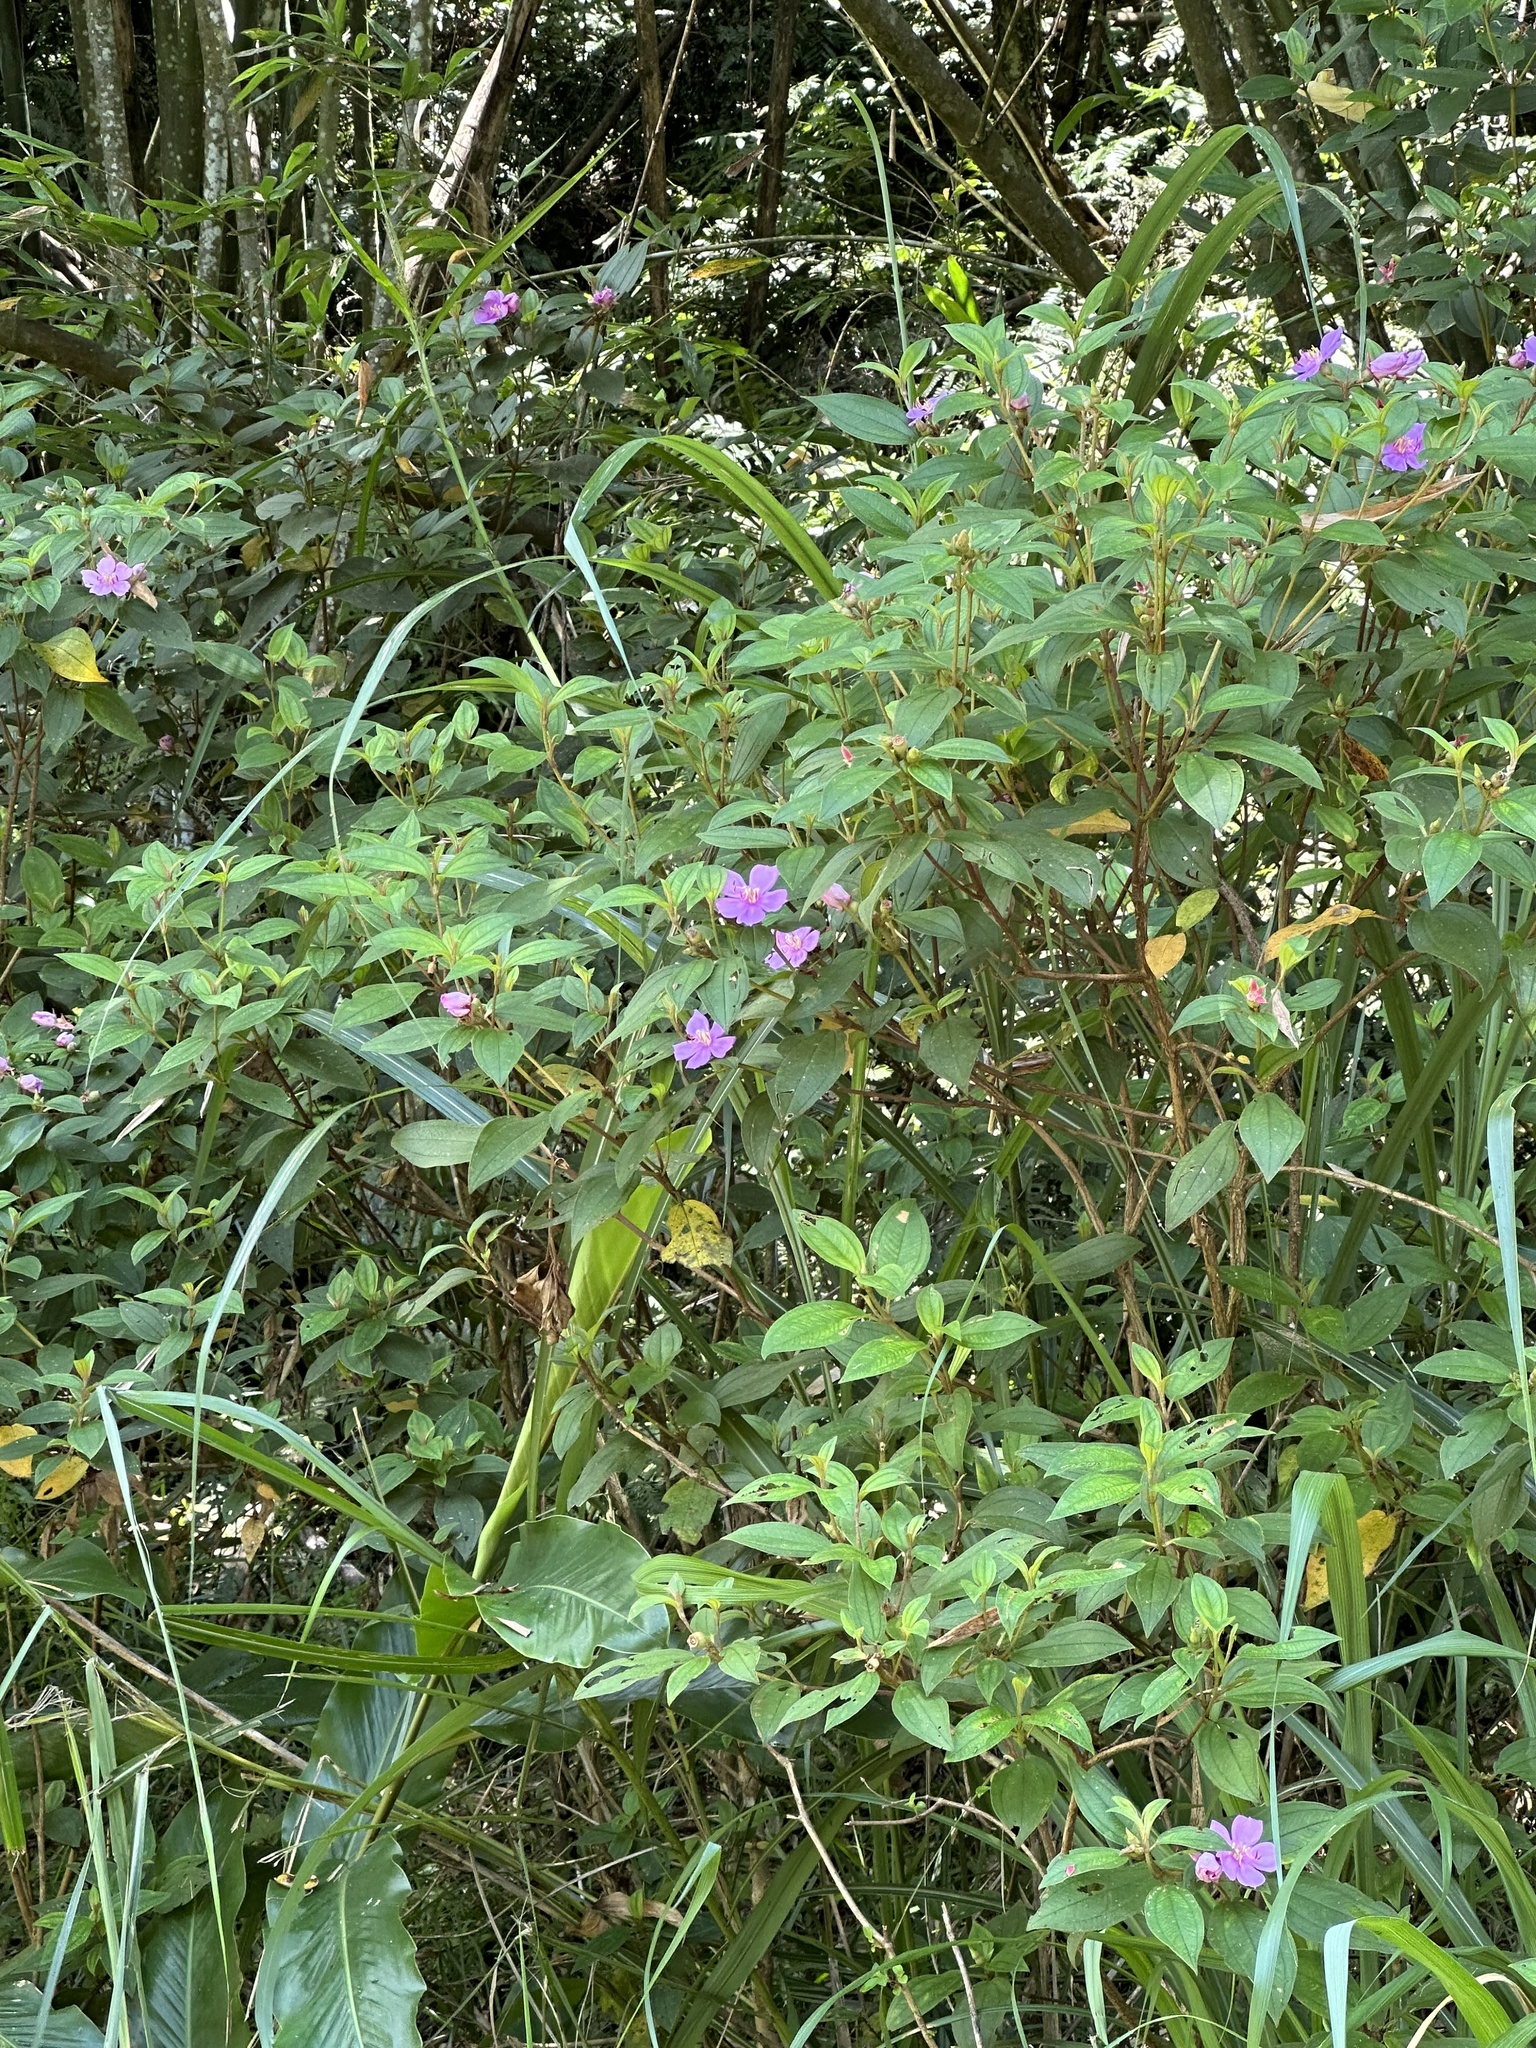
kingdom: Plantae
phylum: Tracheophyta
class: Magnoliopsida
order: Myrtales
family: Melastomataceae
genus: Melastoma
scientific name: Melastoma malabathricum
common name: Indian-rhododendron
